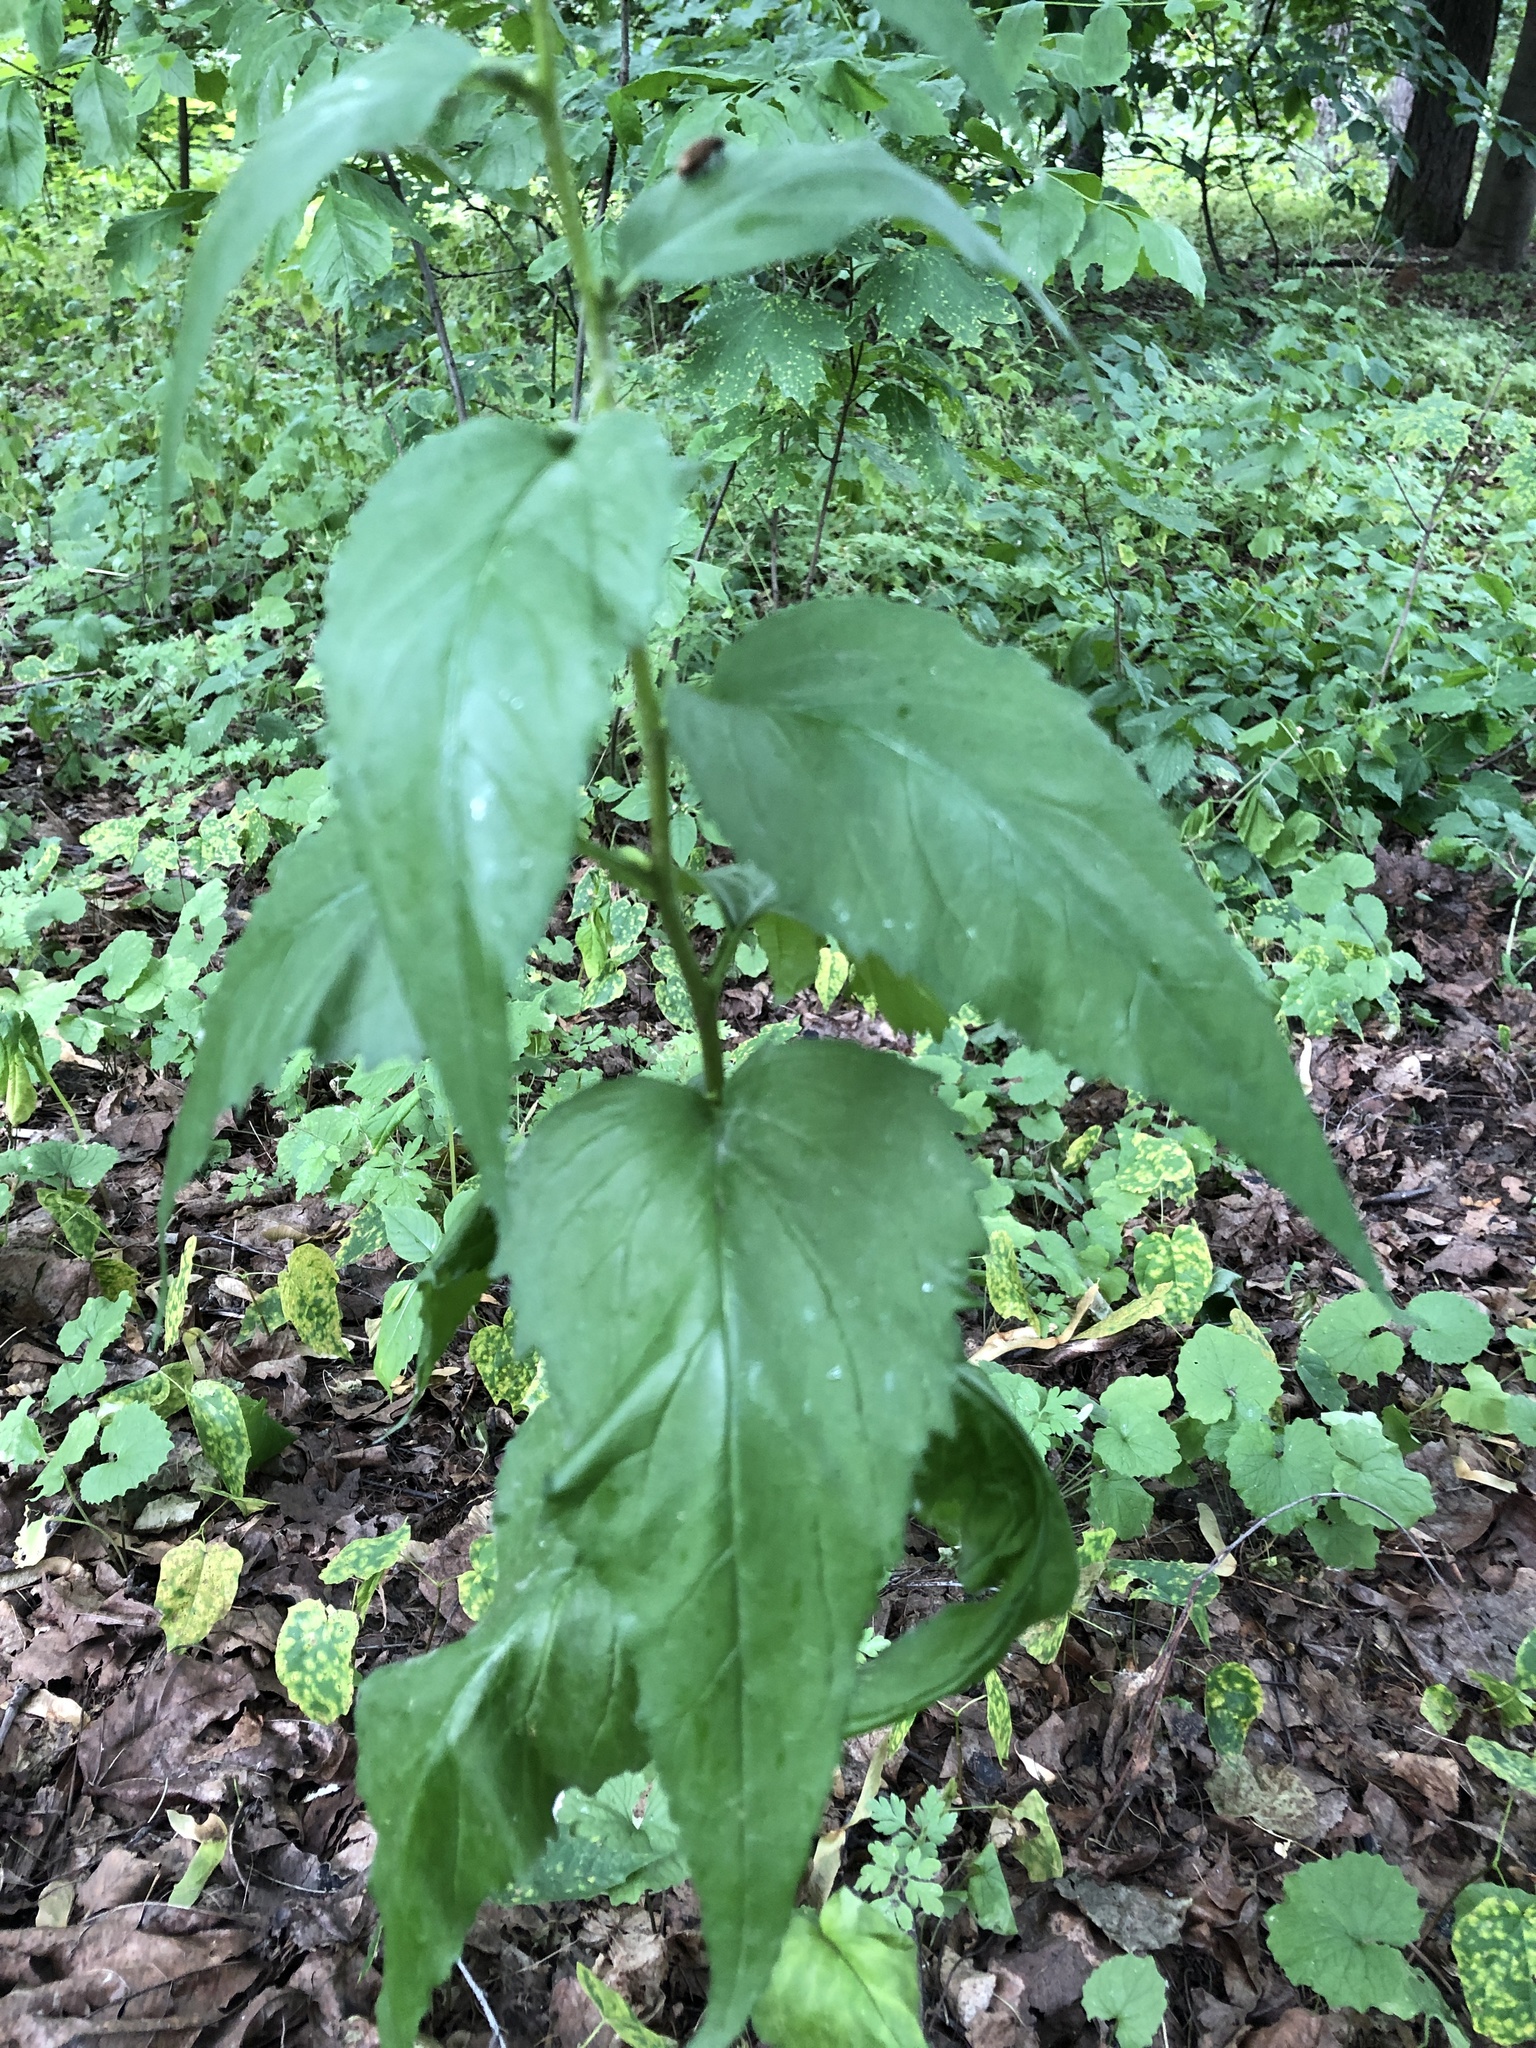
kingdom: Plantae
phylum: Tracheophyta
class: Magnoliopsida
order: Asterales
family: Campanulaceae
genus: Campanula
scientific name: Campanula rapunculoides
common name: Creeping bellflower
